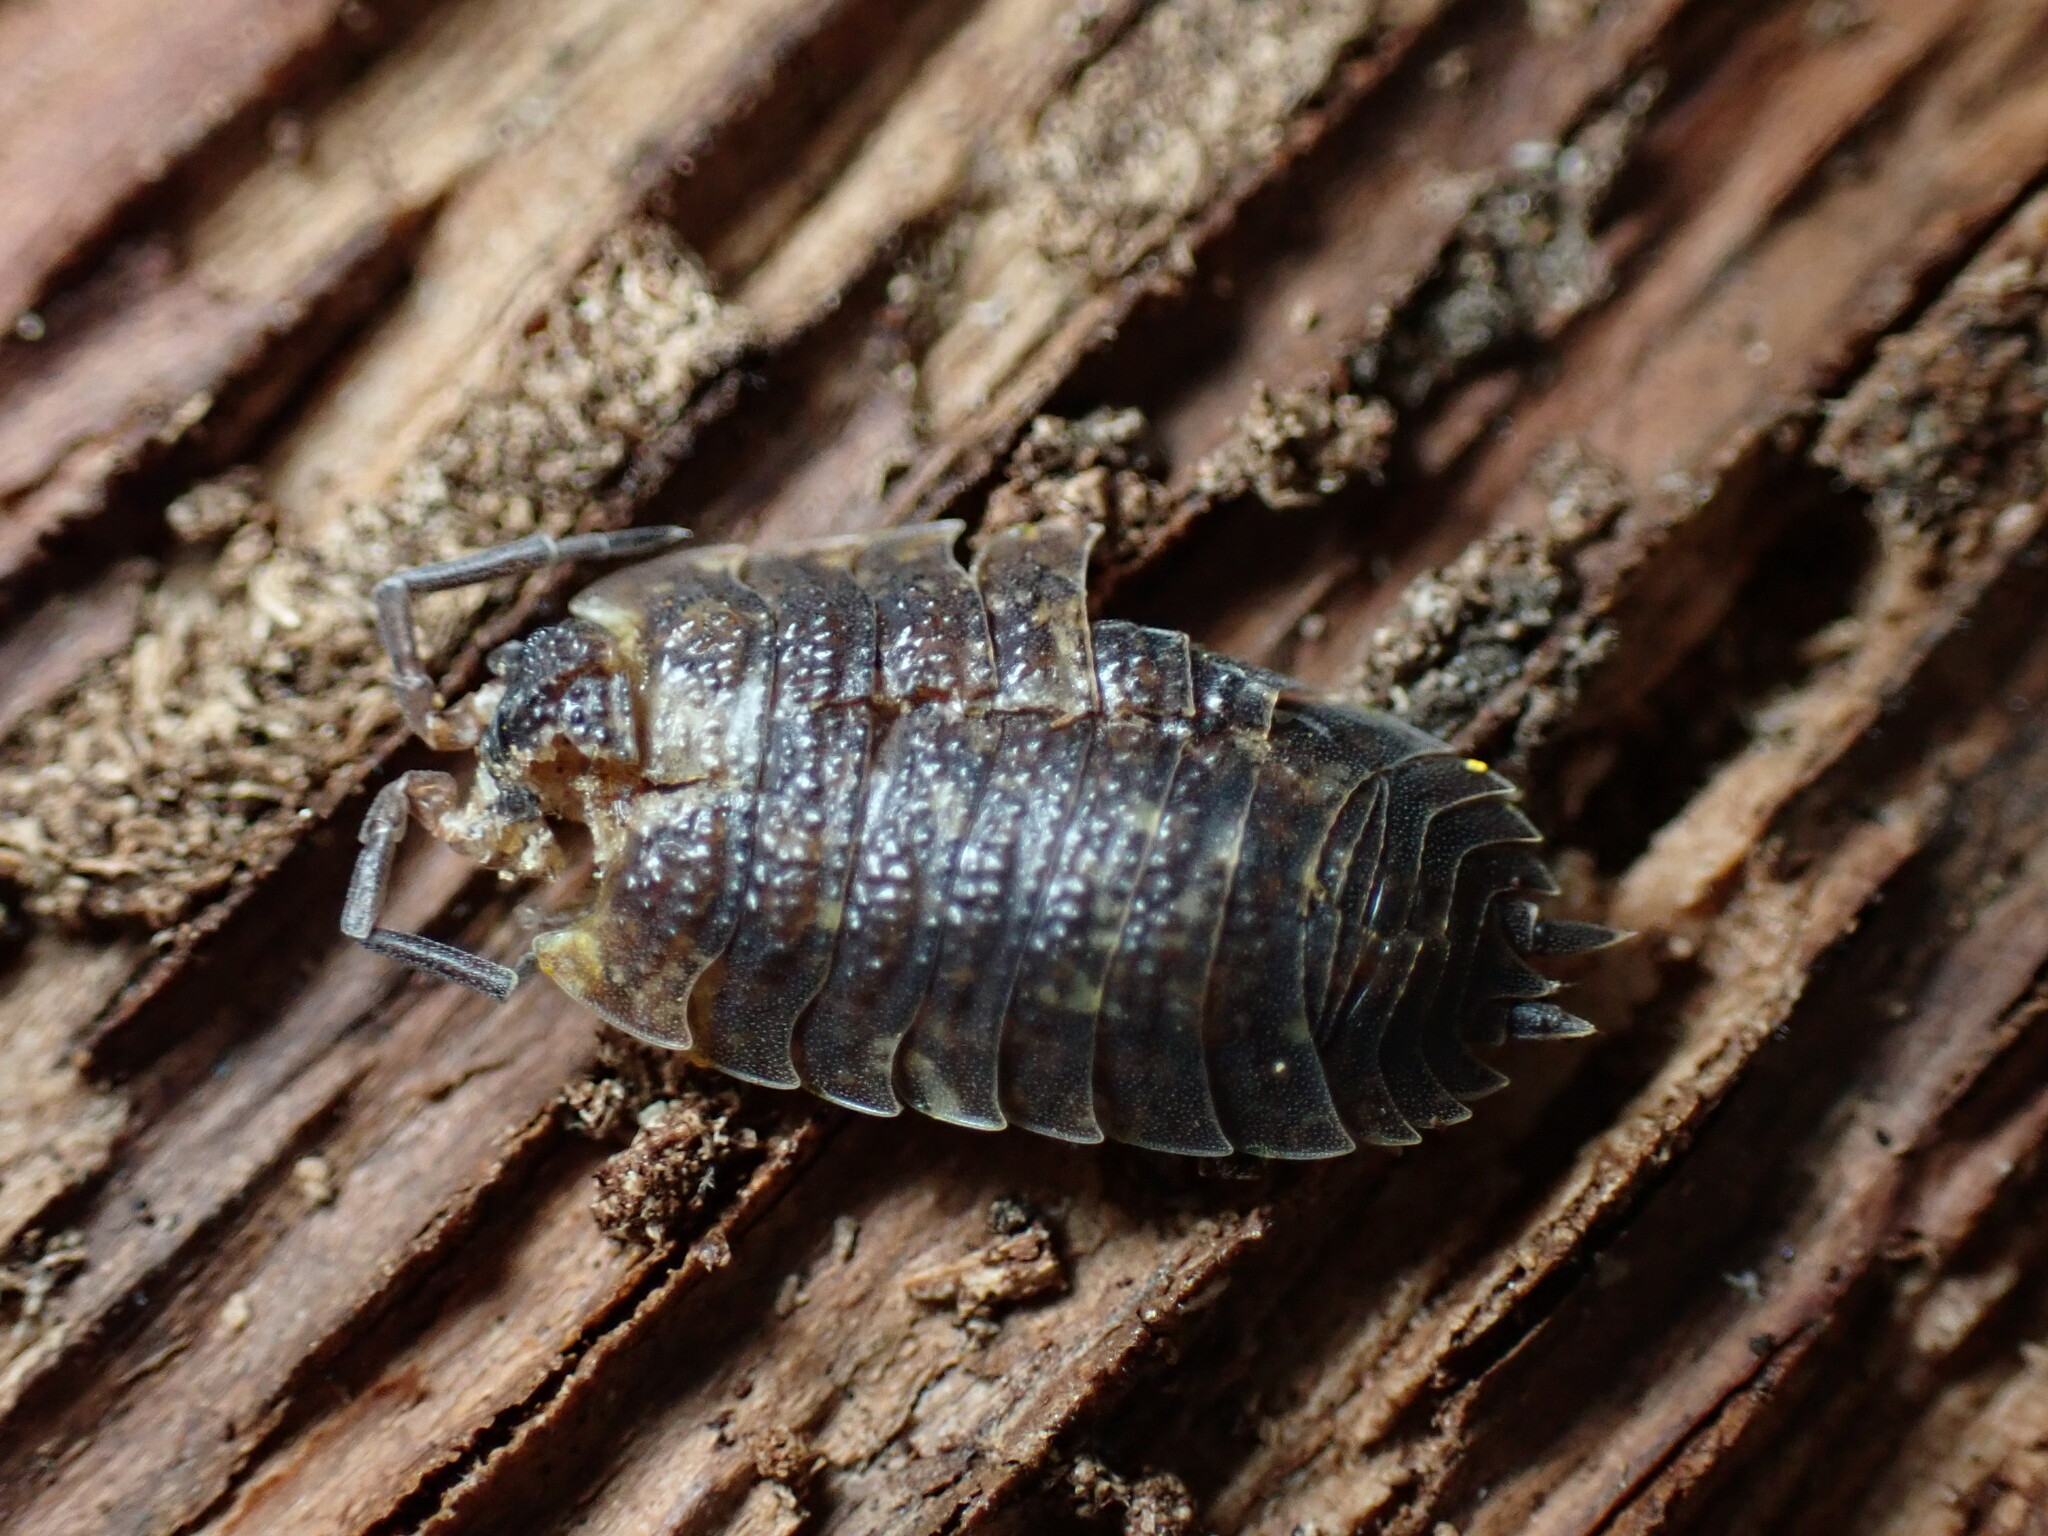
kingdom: Animalia
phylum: Arthropoda
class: Malacostraca
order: Isopoda
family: Porcellionidae
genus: Porcellio
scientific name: Porcellio scaber
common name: Common rough woodlouse
